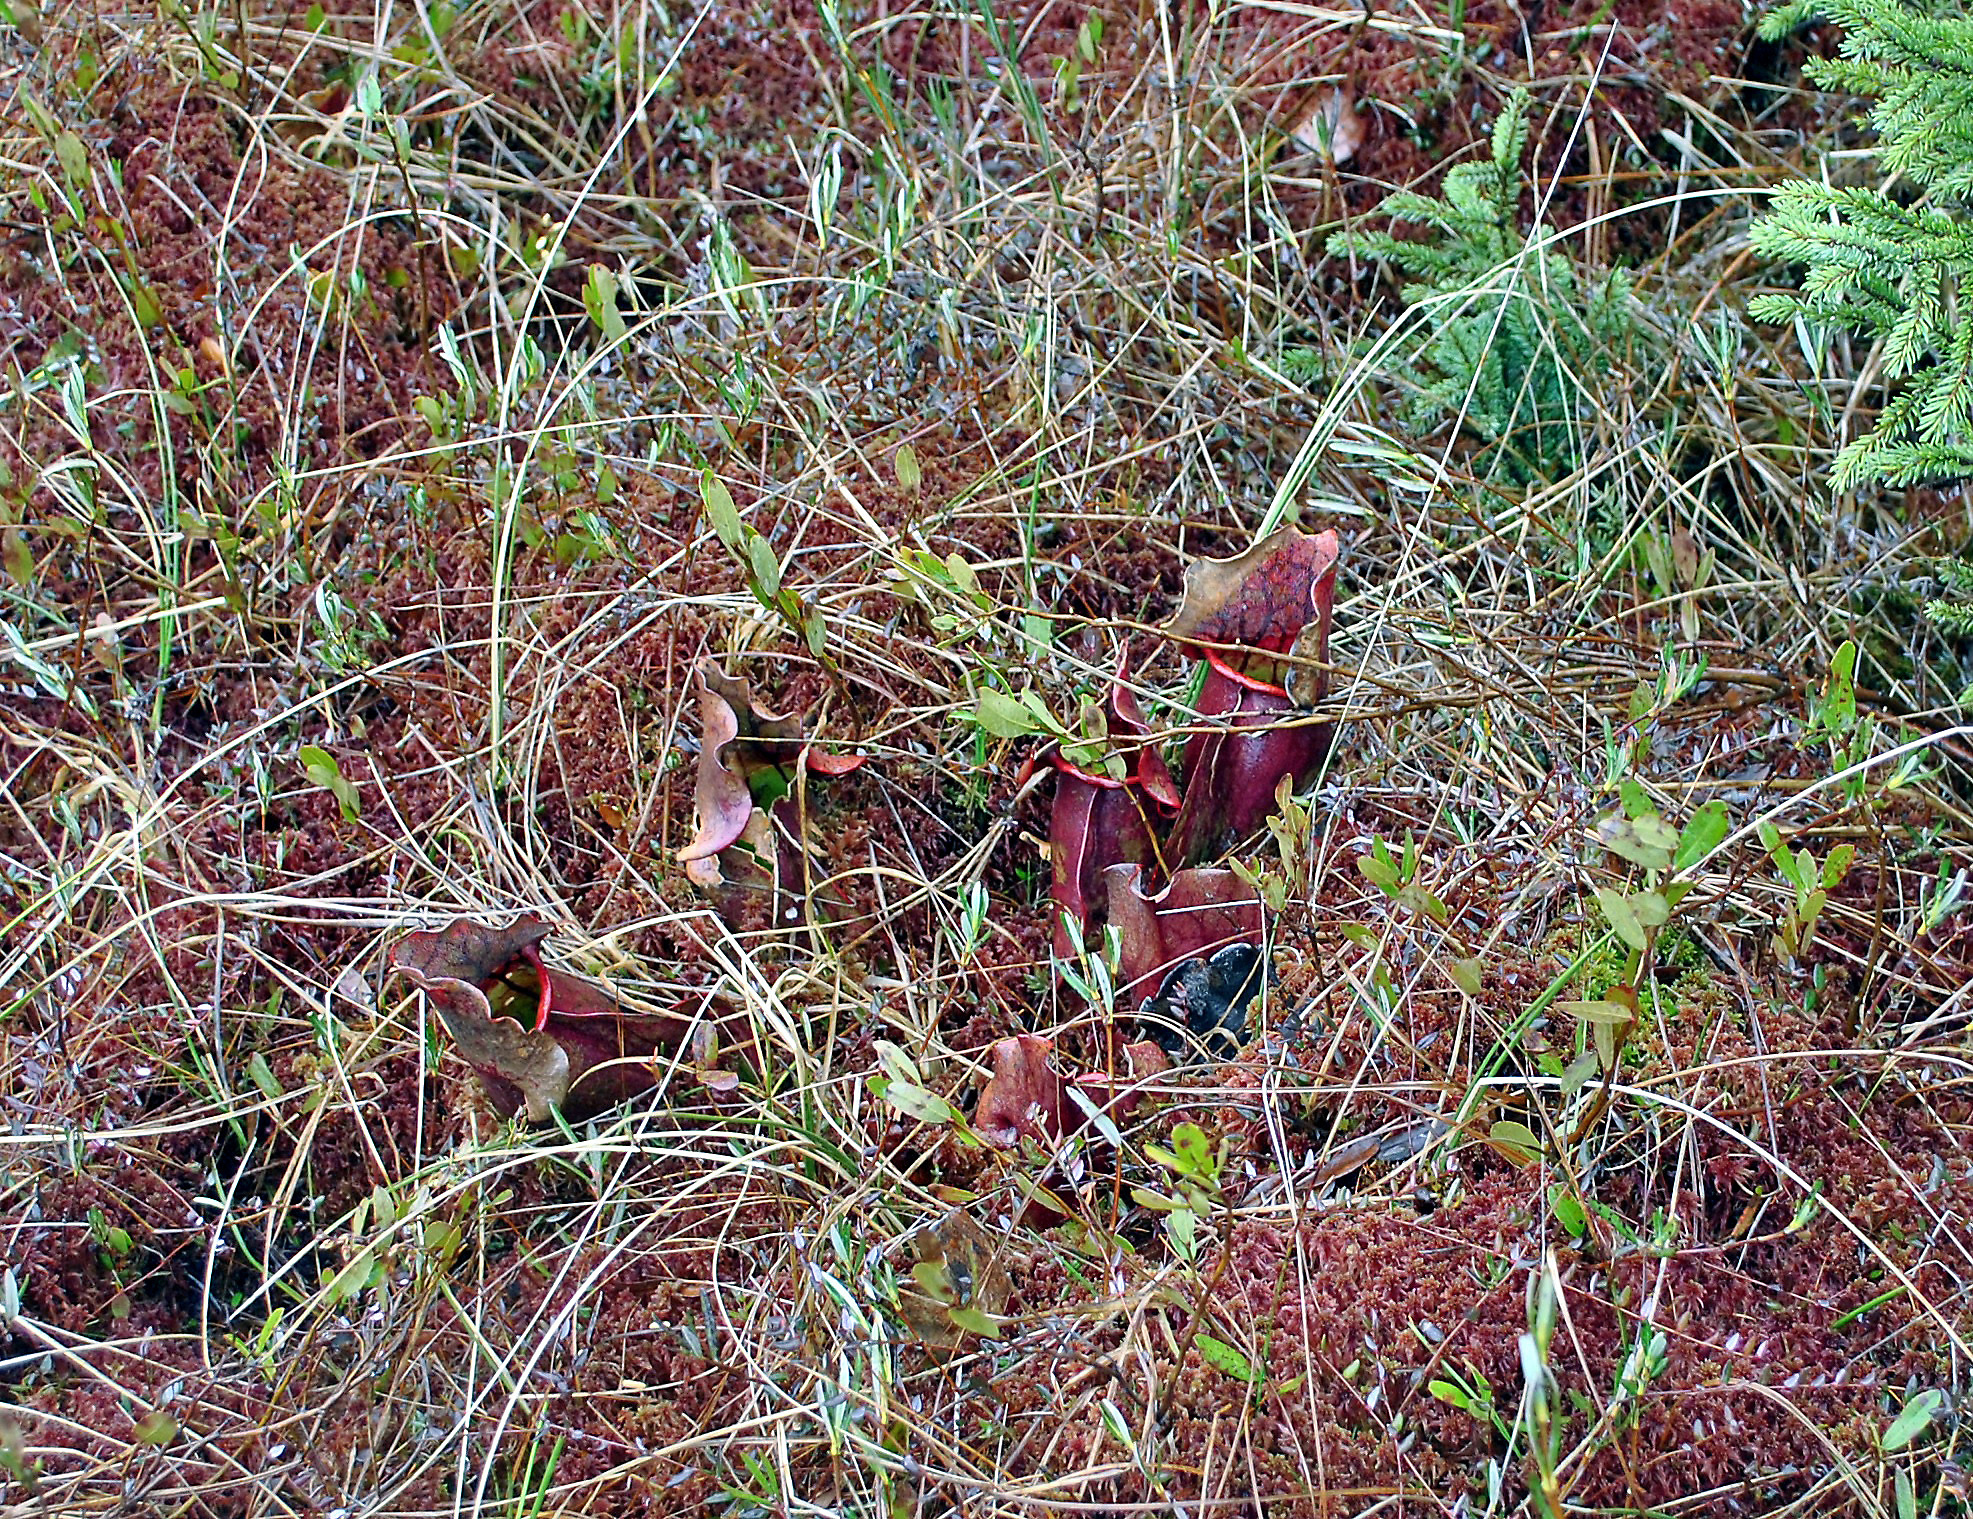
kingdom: Plantae
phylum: Tracheophyta
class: Magnoliopsida
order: Ericales
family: Sarraceniaceae
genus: Sarracenia
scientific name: Sarracenia purpurea
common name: Pitcherplant
